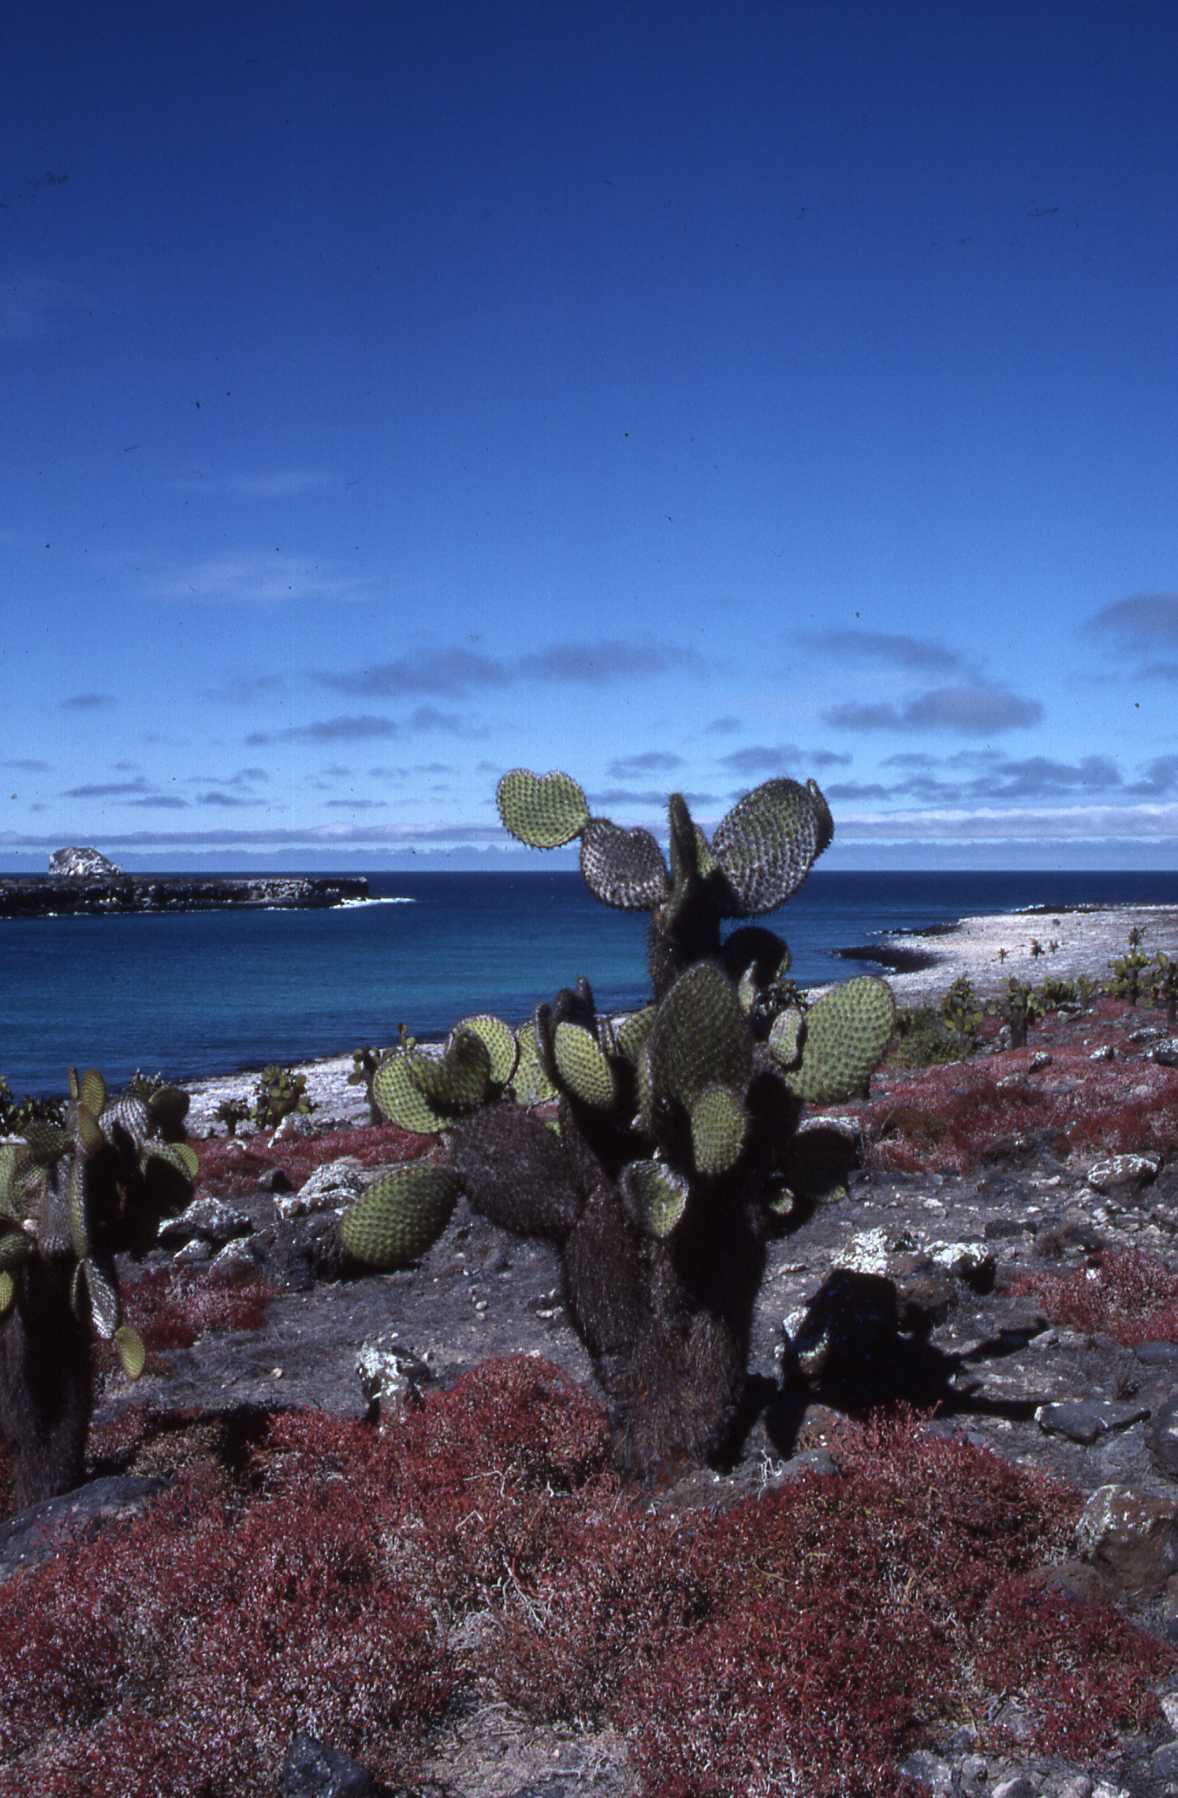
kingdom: Plantae
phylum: Tracheophyta
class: Magnoliopsida
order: Caryophyllales
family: Cactaceae
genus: Opuntia
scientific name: Opuntia galapageia
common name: Galápagos prickly pear
